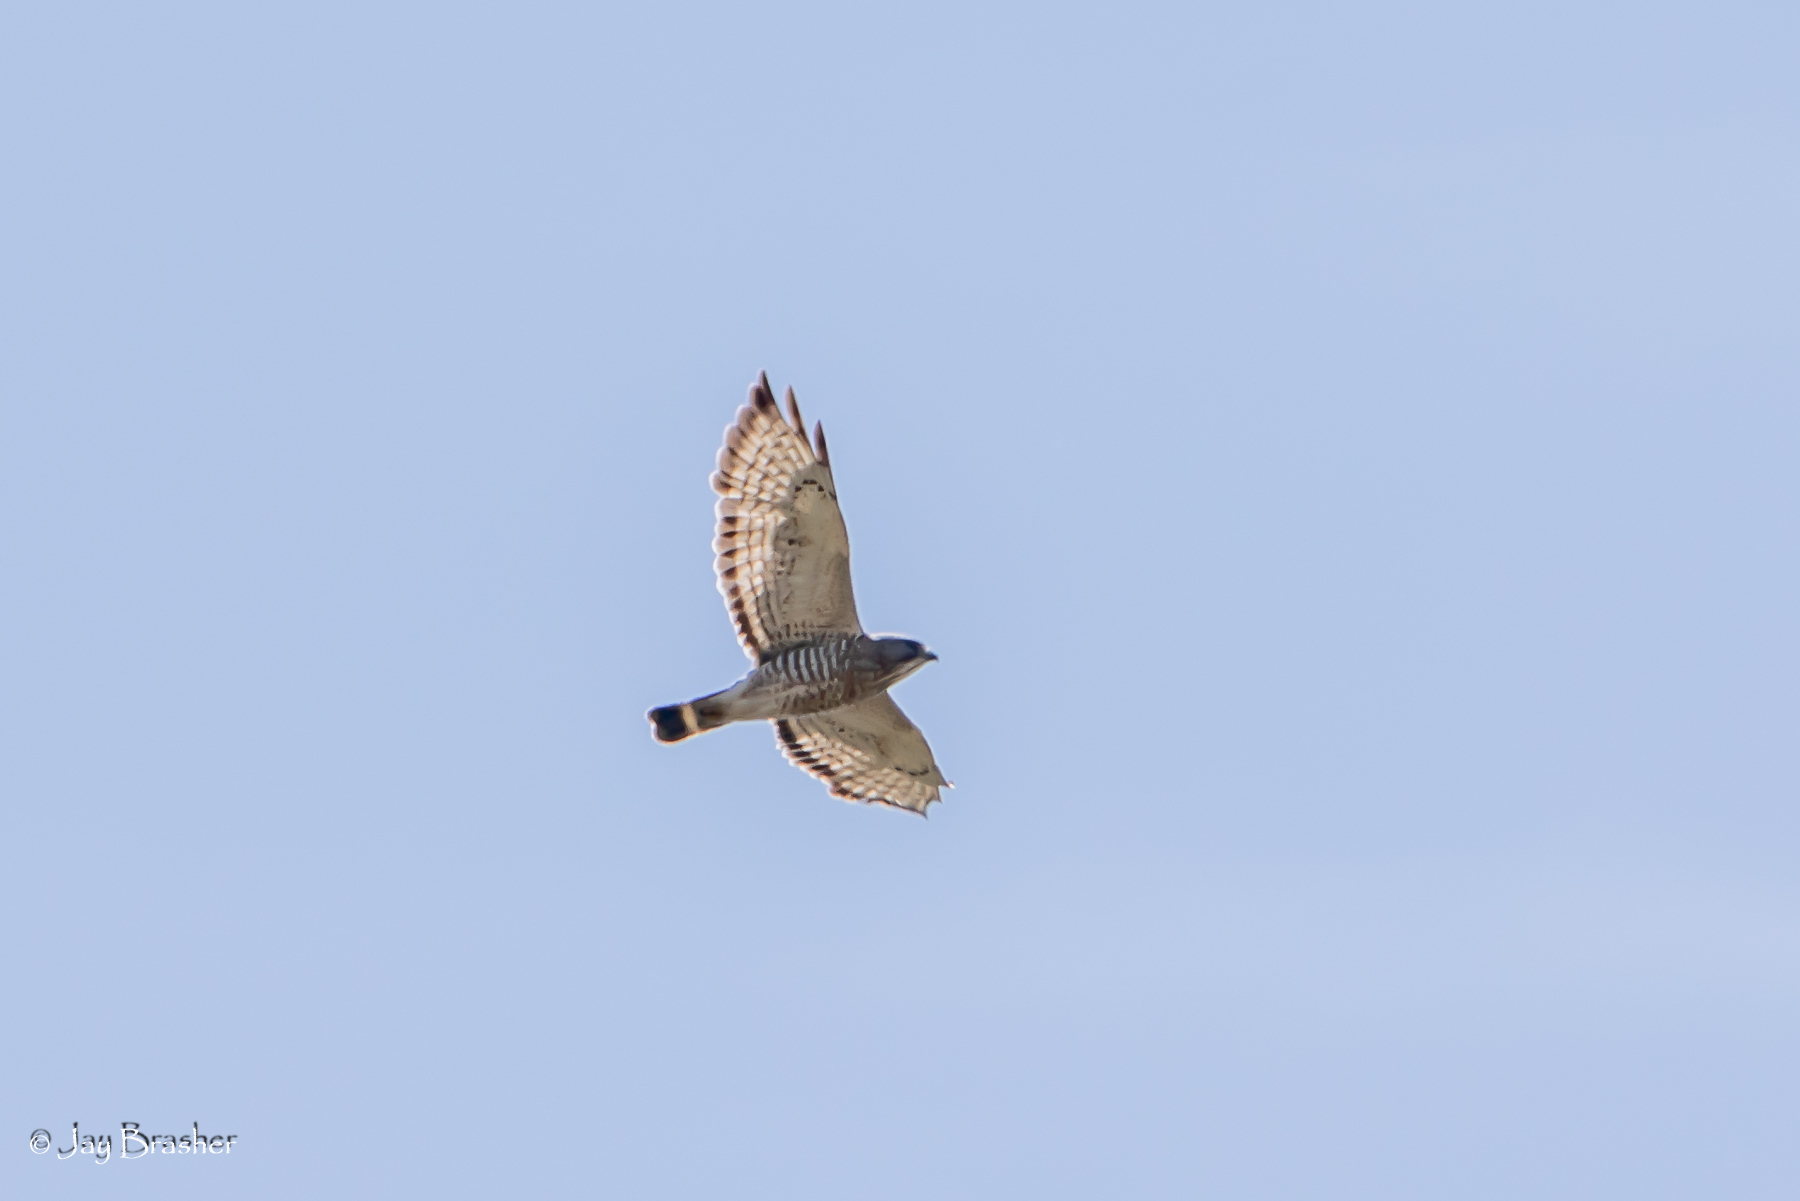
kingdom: Animalia
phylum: Chordata
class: Aves
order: Accipitriformes
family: Accipitridae
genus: Buteo
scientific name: Buteo platypterus
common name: Broad-winged hawk
